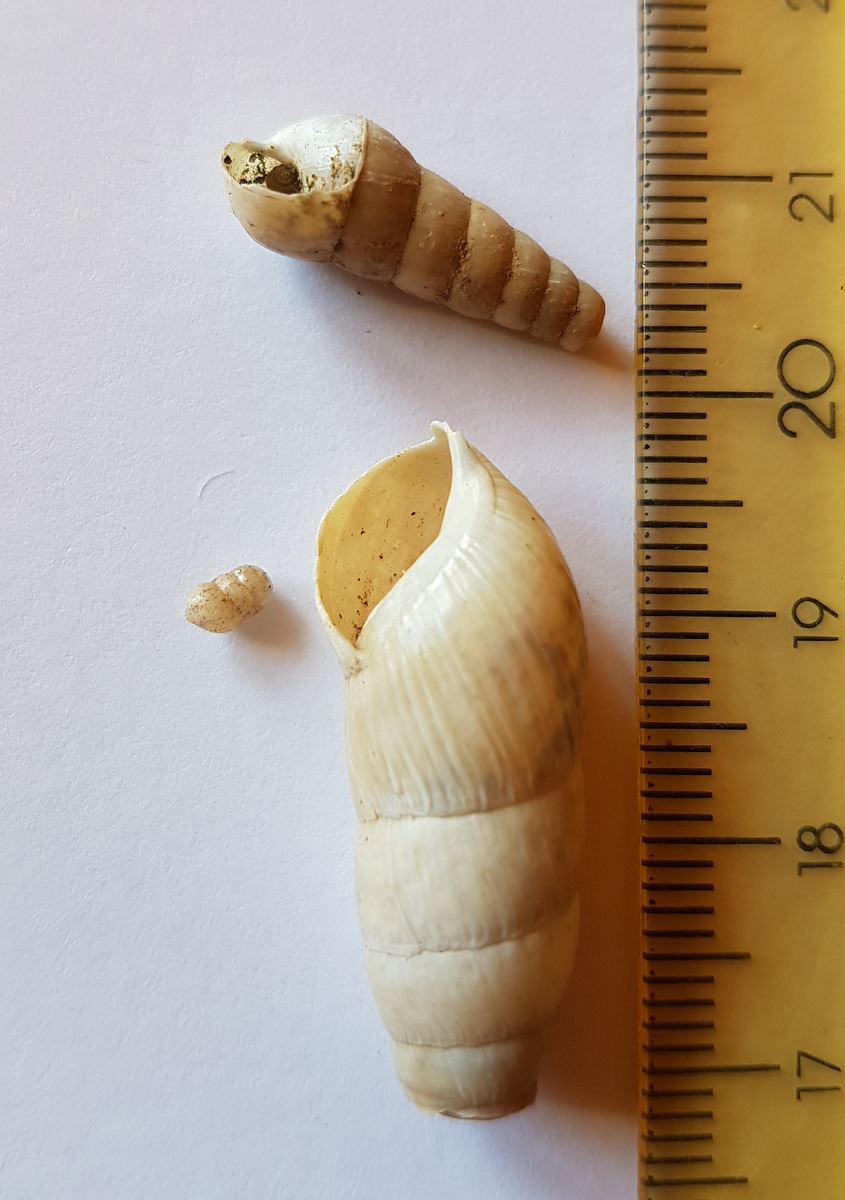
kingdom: Animalia
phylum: Mollusca
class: Gastropoda
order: Stylommatophora
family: Achatinidae
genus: Rumina
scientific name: Rumina decollata
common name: Decollate snail
